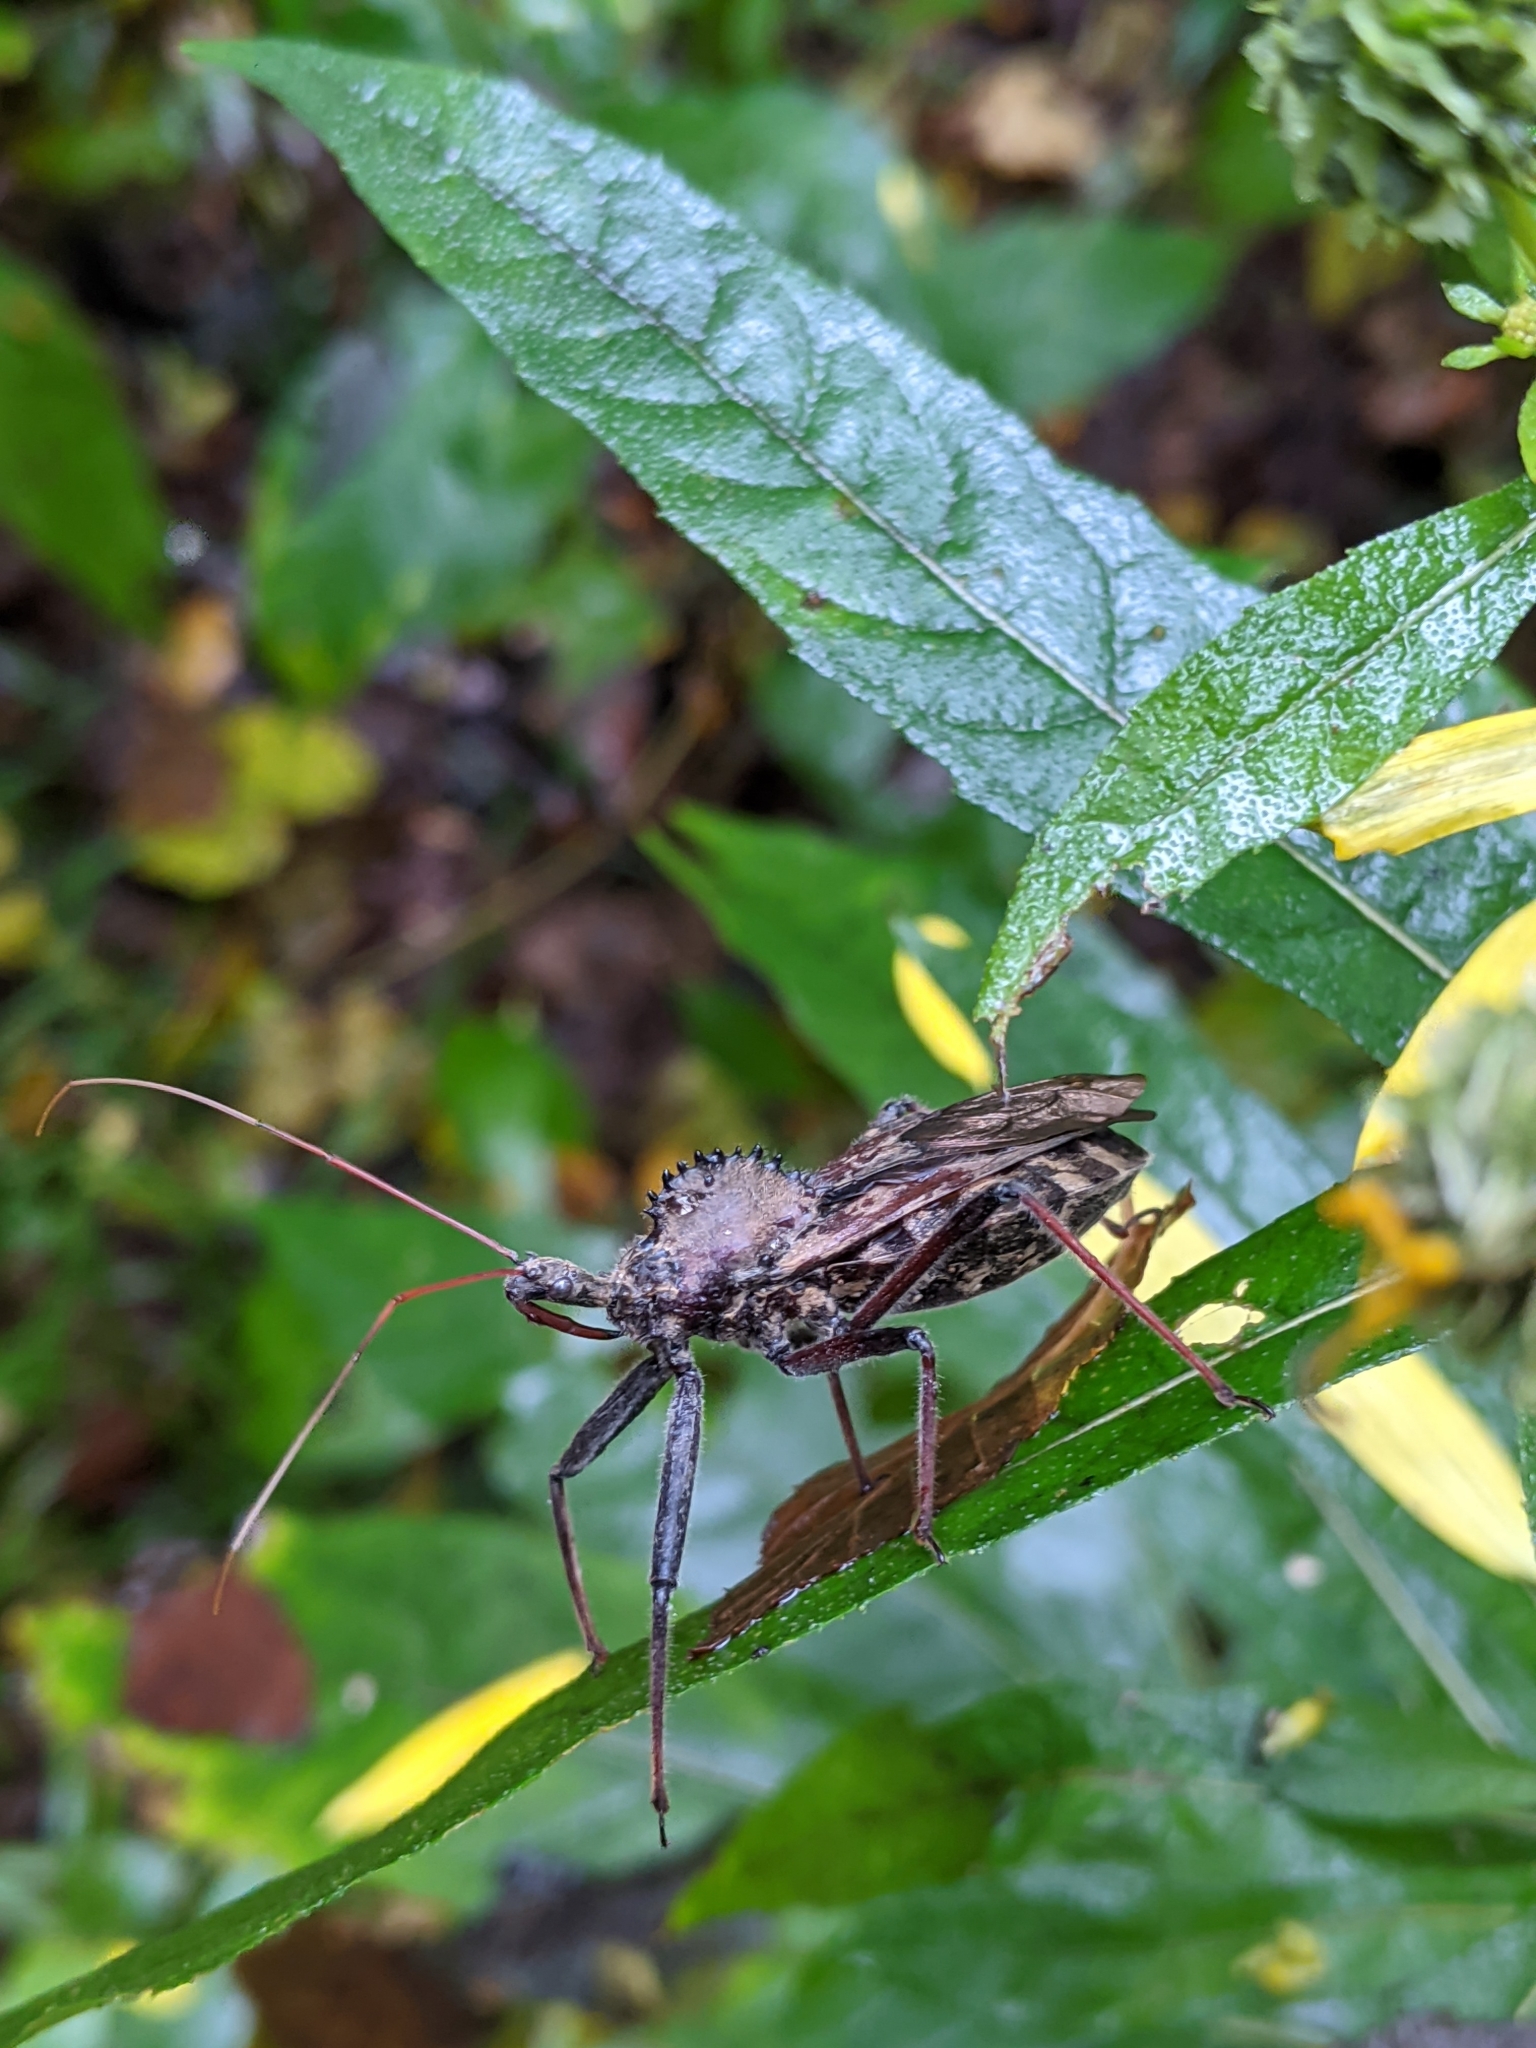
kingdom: Animalia
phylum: Arthropoda
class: Insecta
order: Hemiptera
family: Reduviidae
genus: Arilus
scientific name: Arilus cristatus
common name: North american wheel bug
